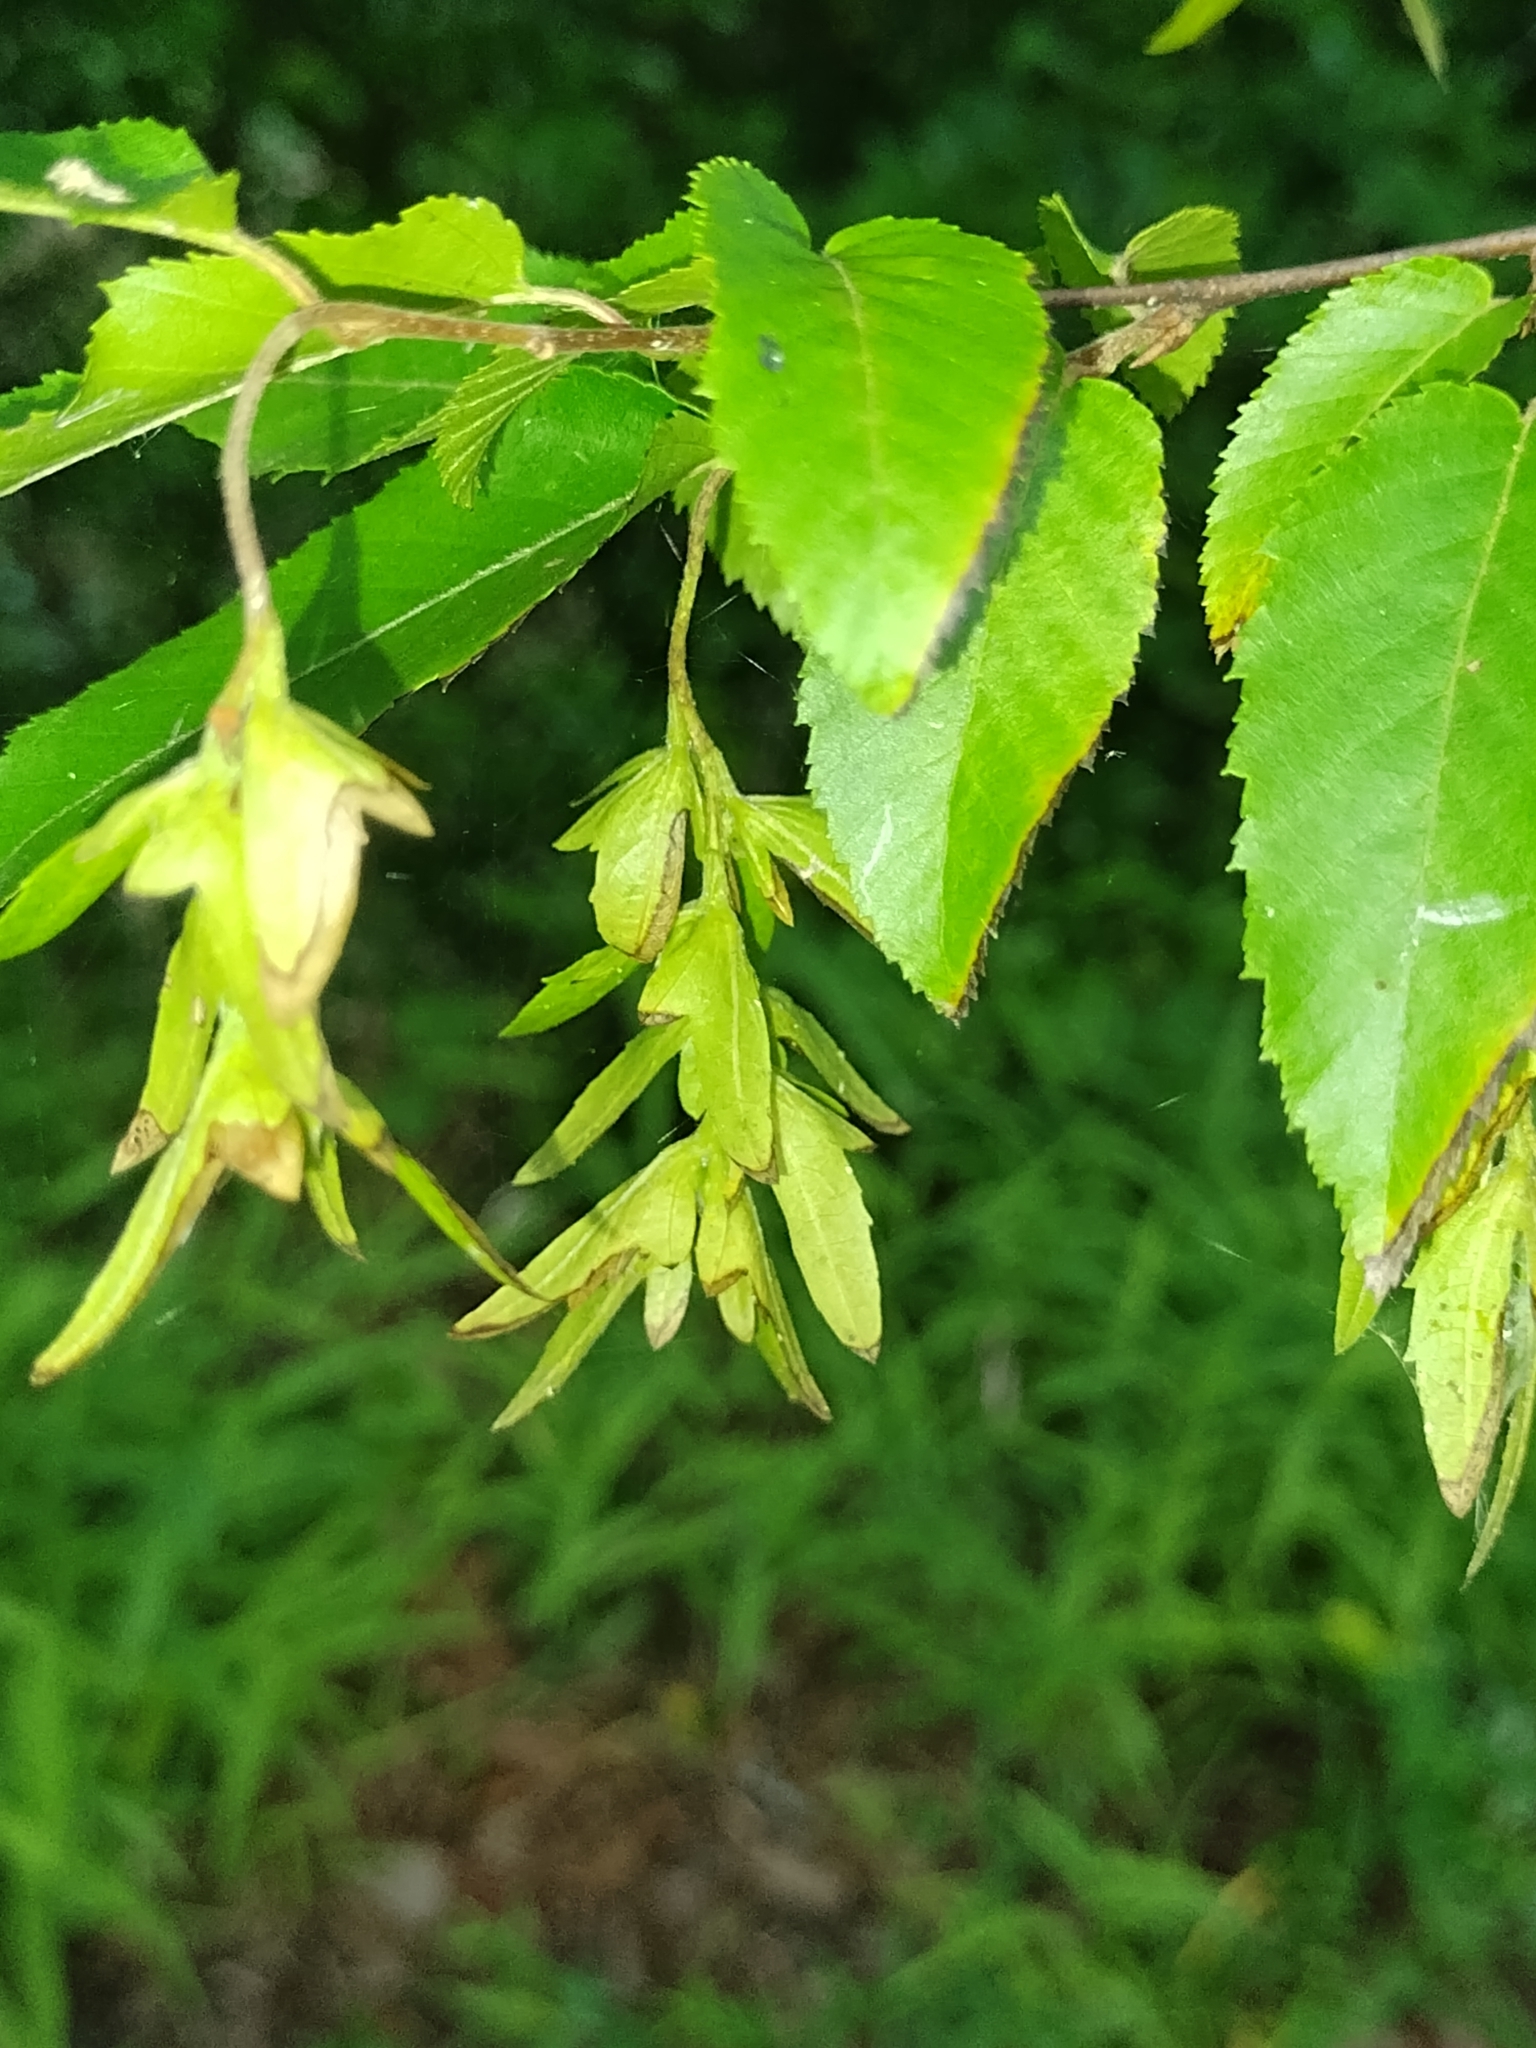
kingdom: Plantae
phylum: Tracheophyta
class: Magnoliopsida
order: Fagales
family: Betulaceae
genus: Carpinus
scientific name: Carpinus caroliniana
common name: American hornbeam
